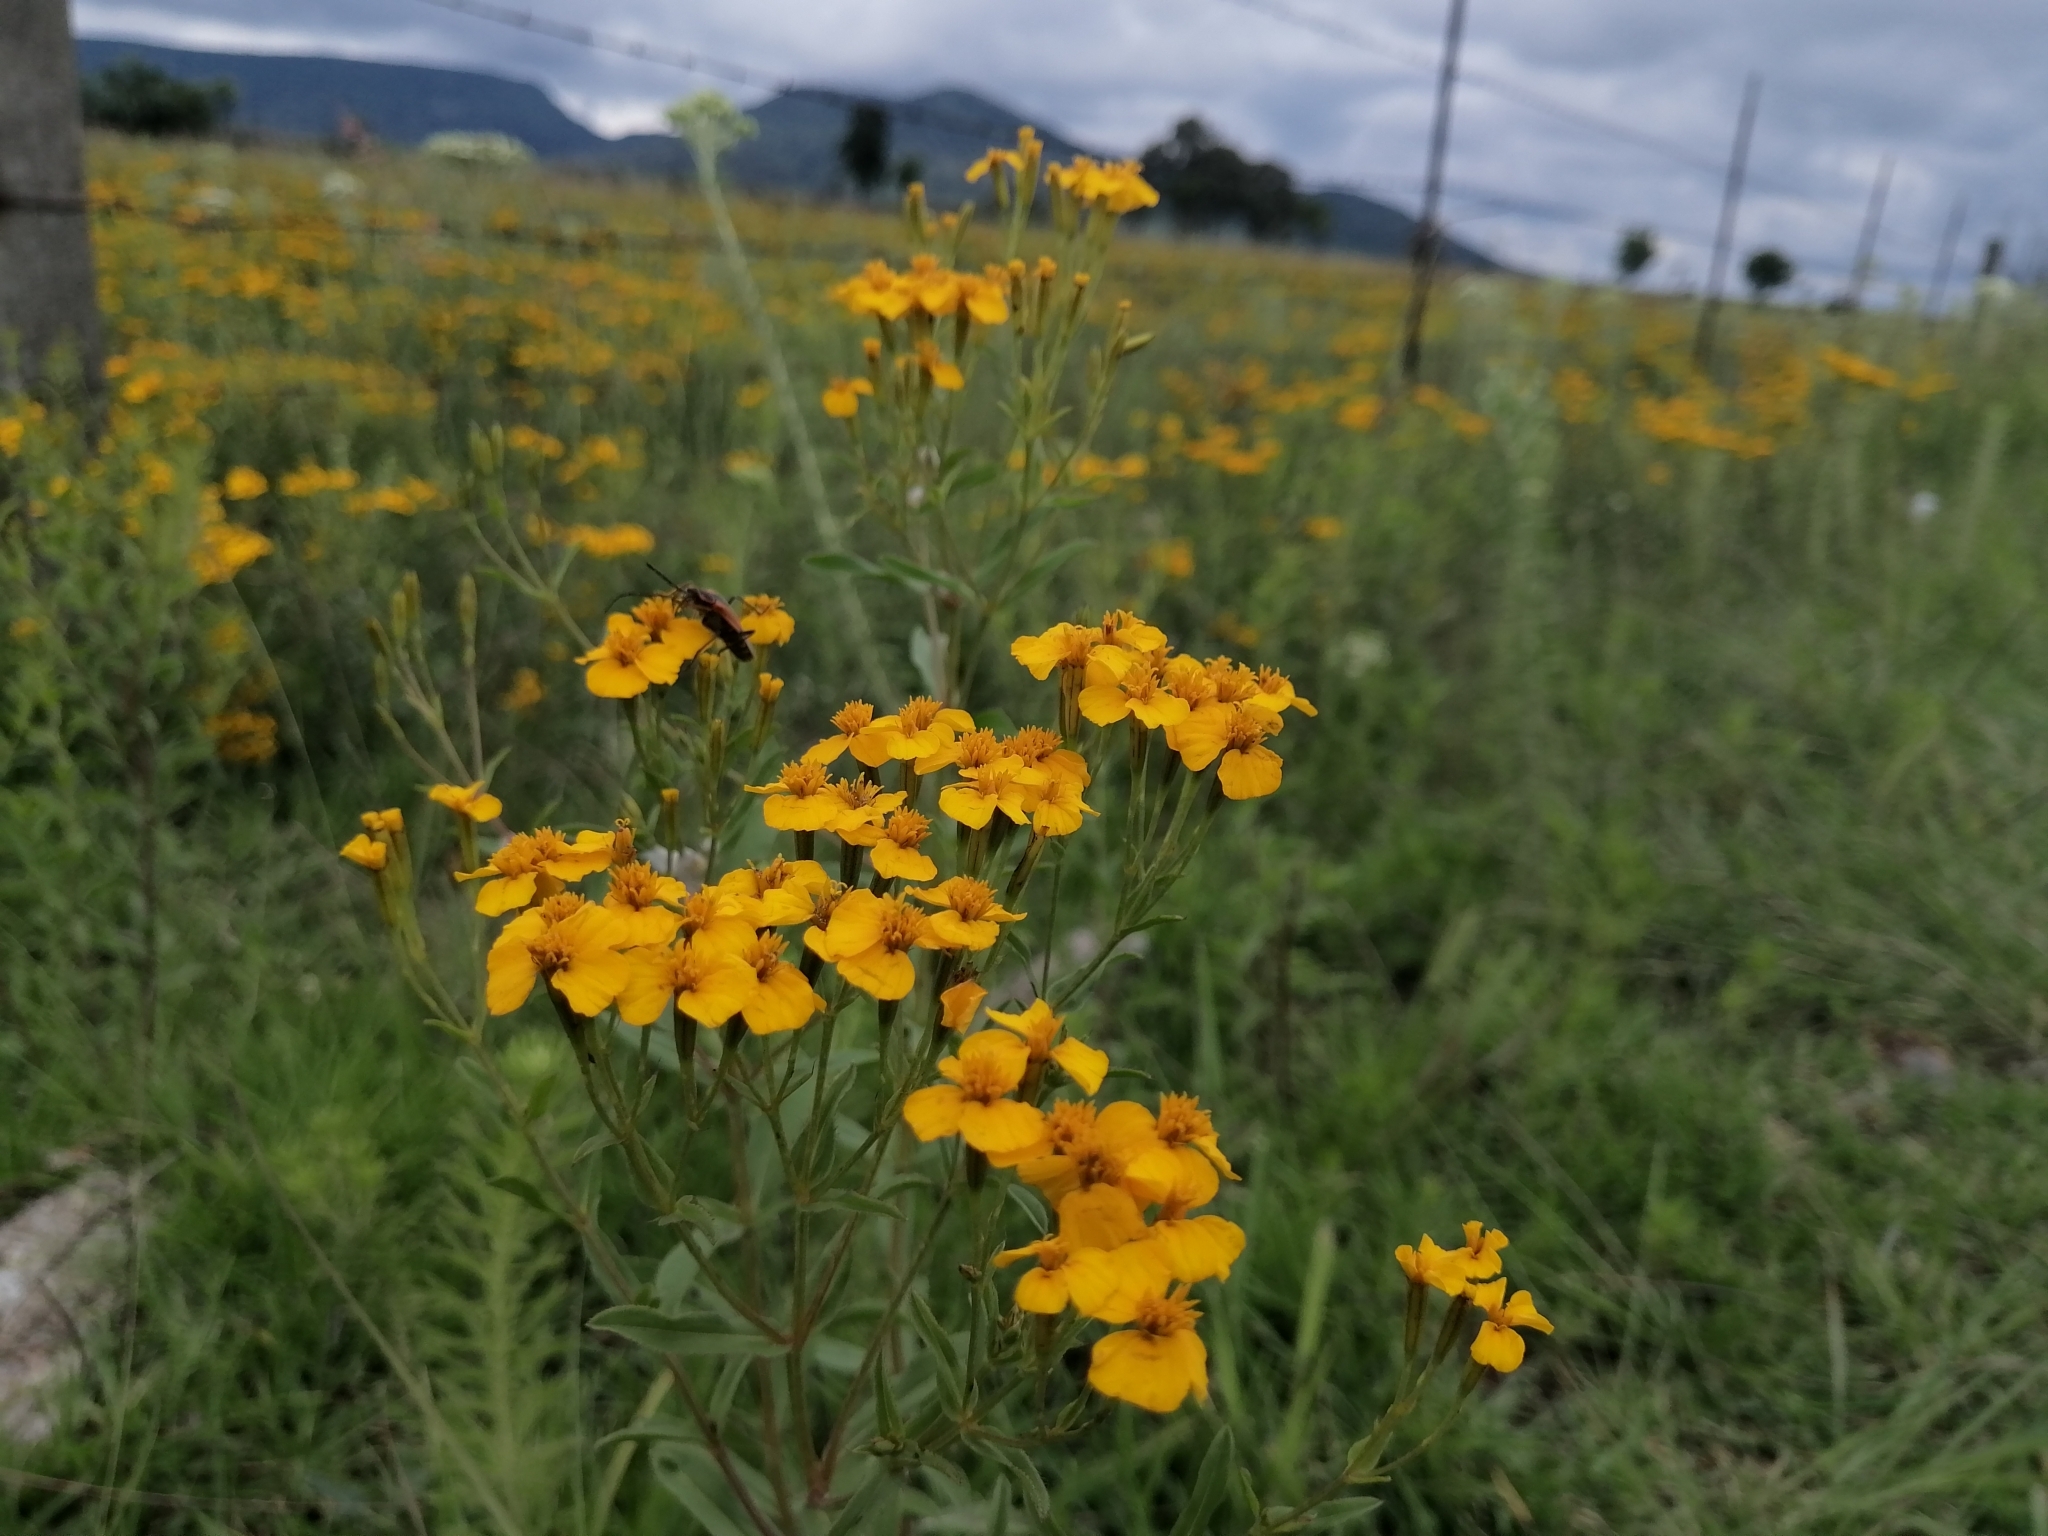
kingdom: Plantae
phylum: Tracheophyta
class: Magnoliopsida
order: Asterales
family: Asteraceae
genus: Tagetes
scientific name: Tagetes lucida
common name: Sweetscented marigold
